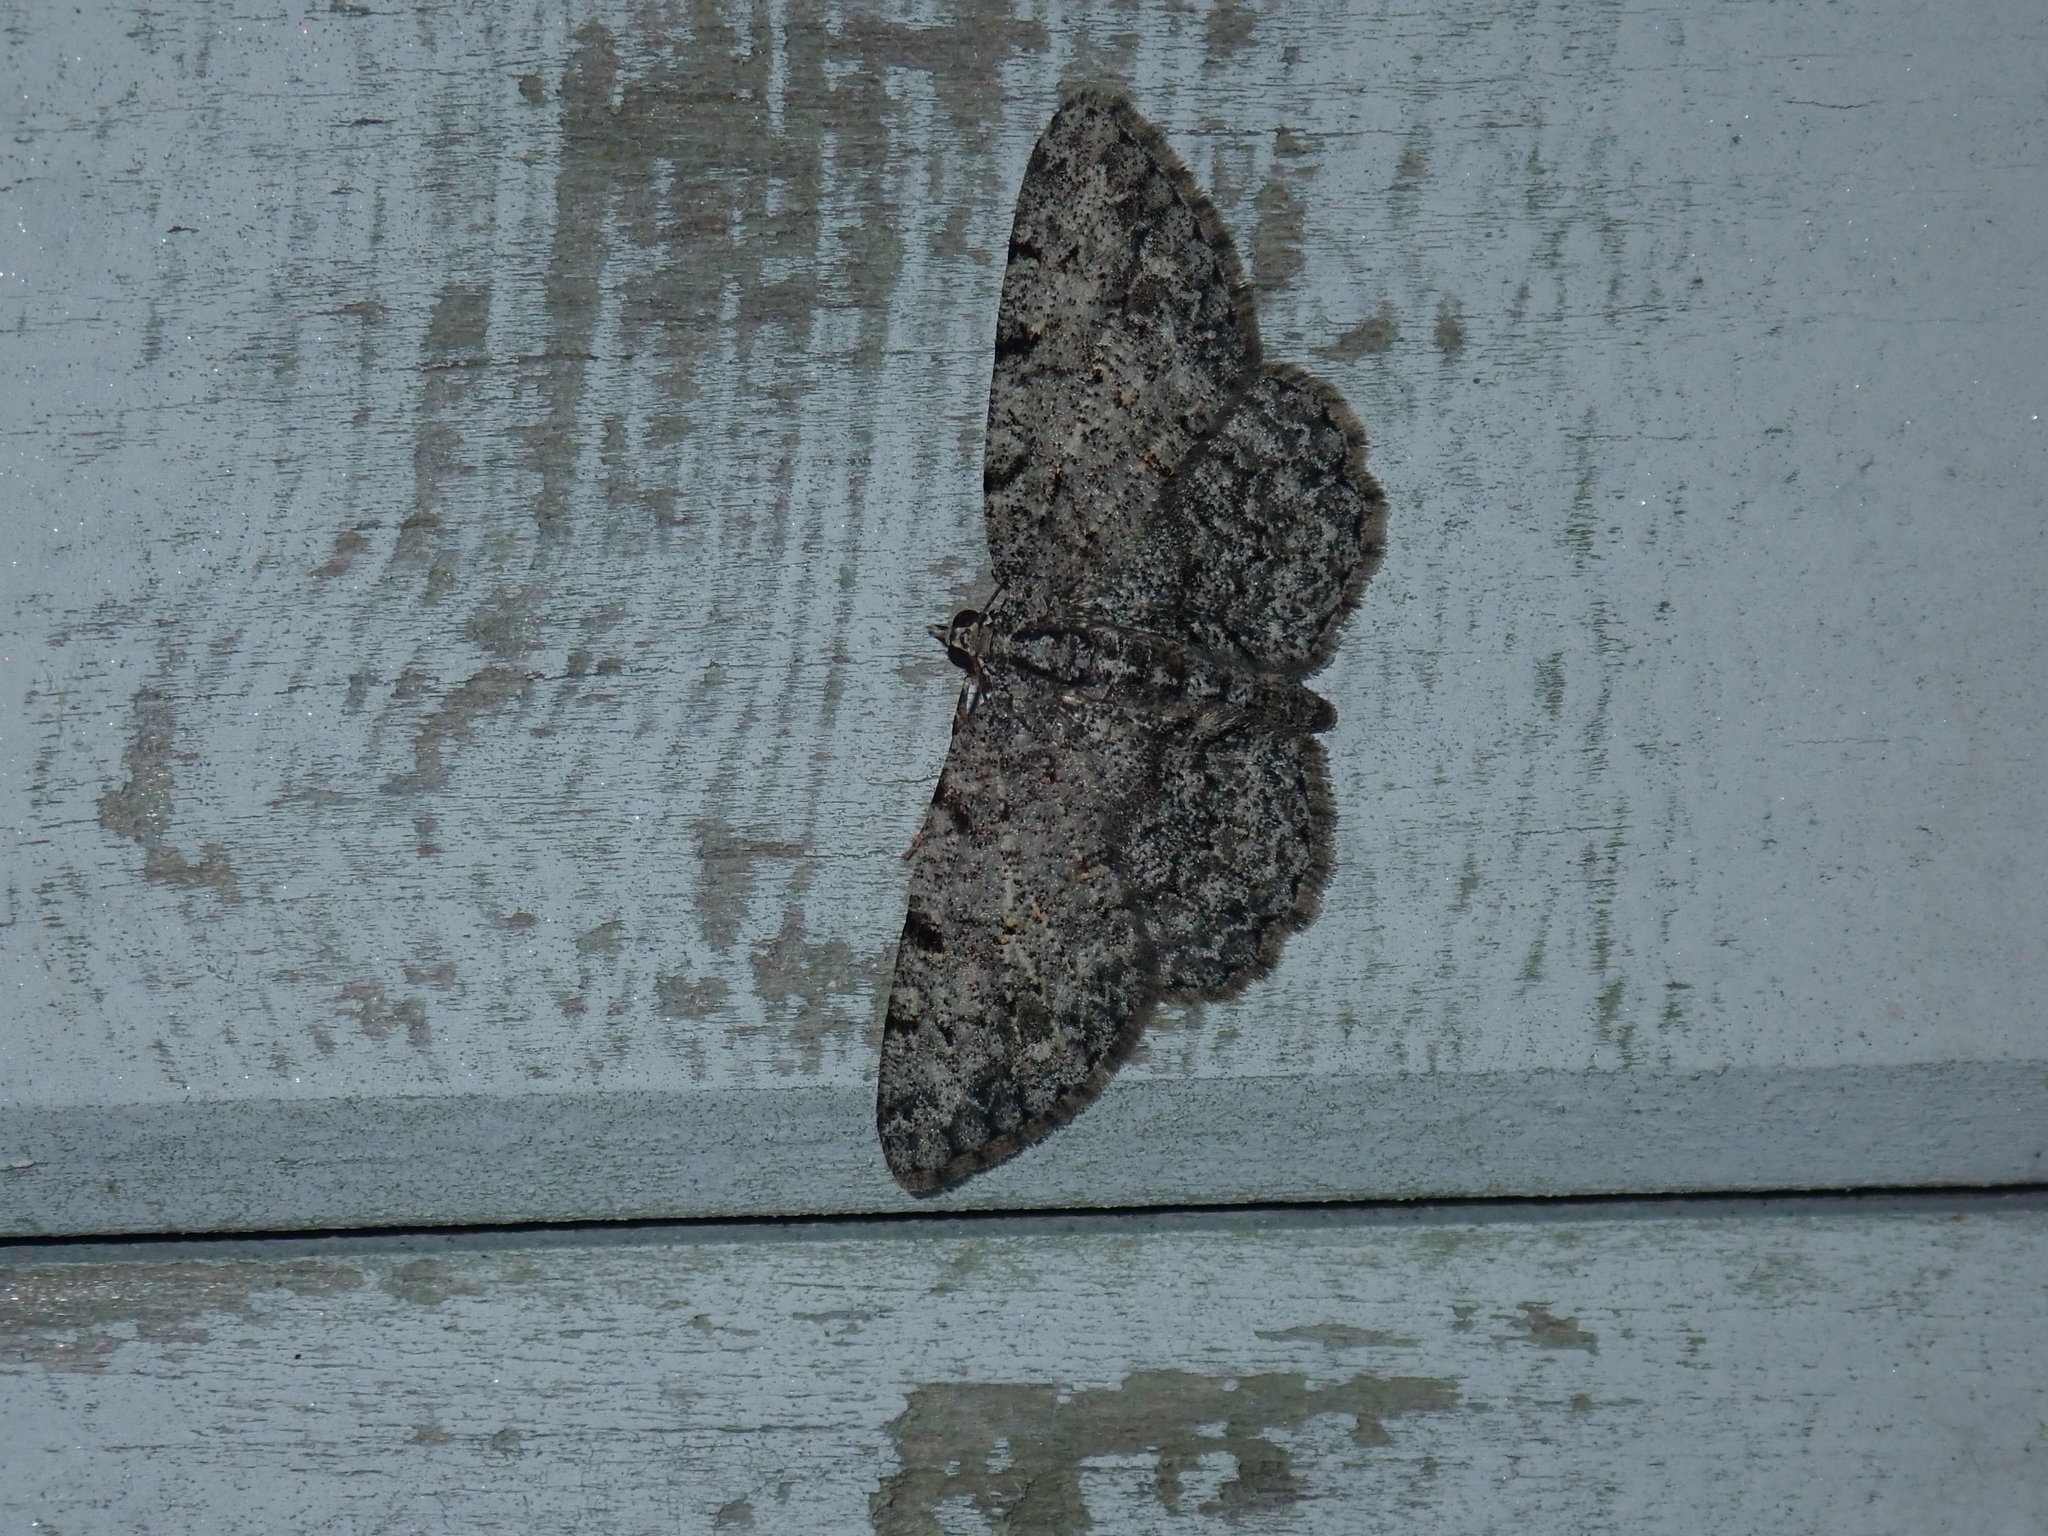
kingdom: Animalia
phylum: Arthropoda
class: Insecta
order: Lepidoptera
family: Geometridae
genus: Protoboarmia
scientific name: Protoboarmia porcelaria
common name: Porcelain gray
